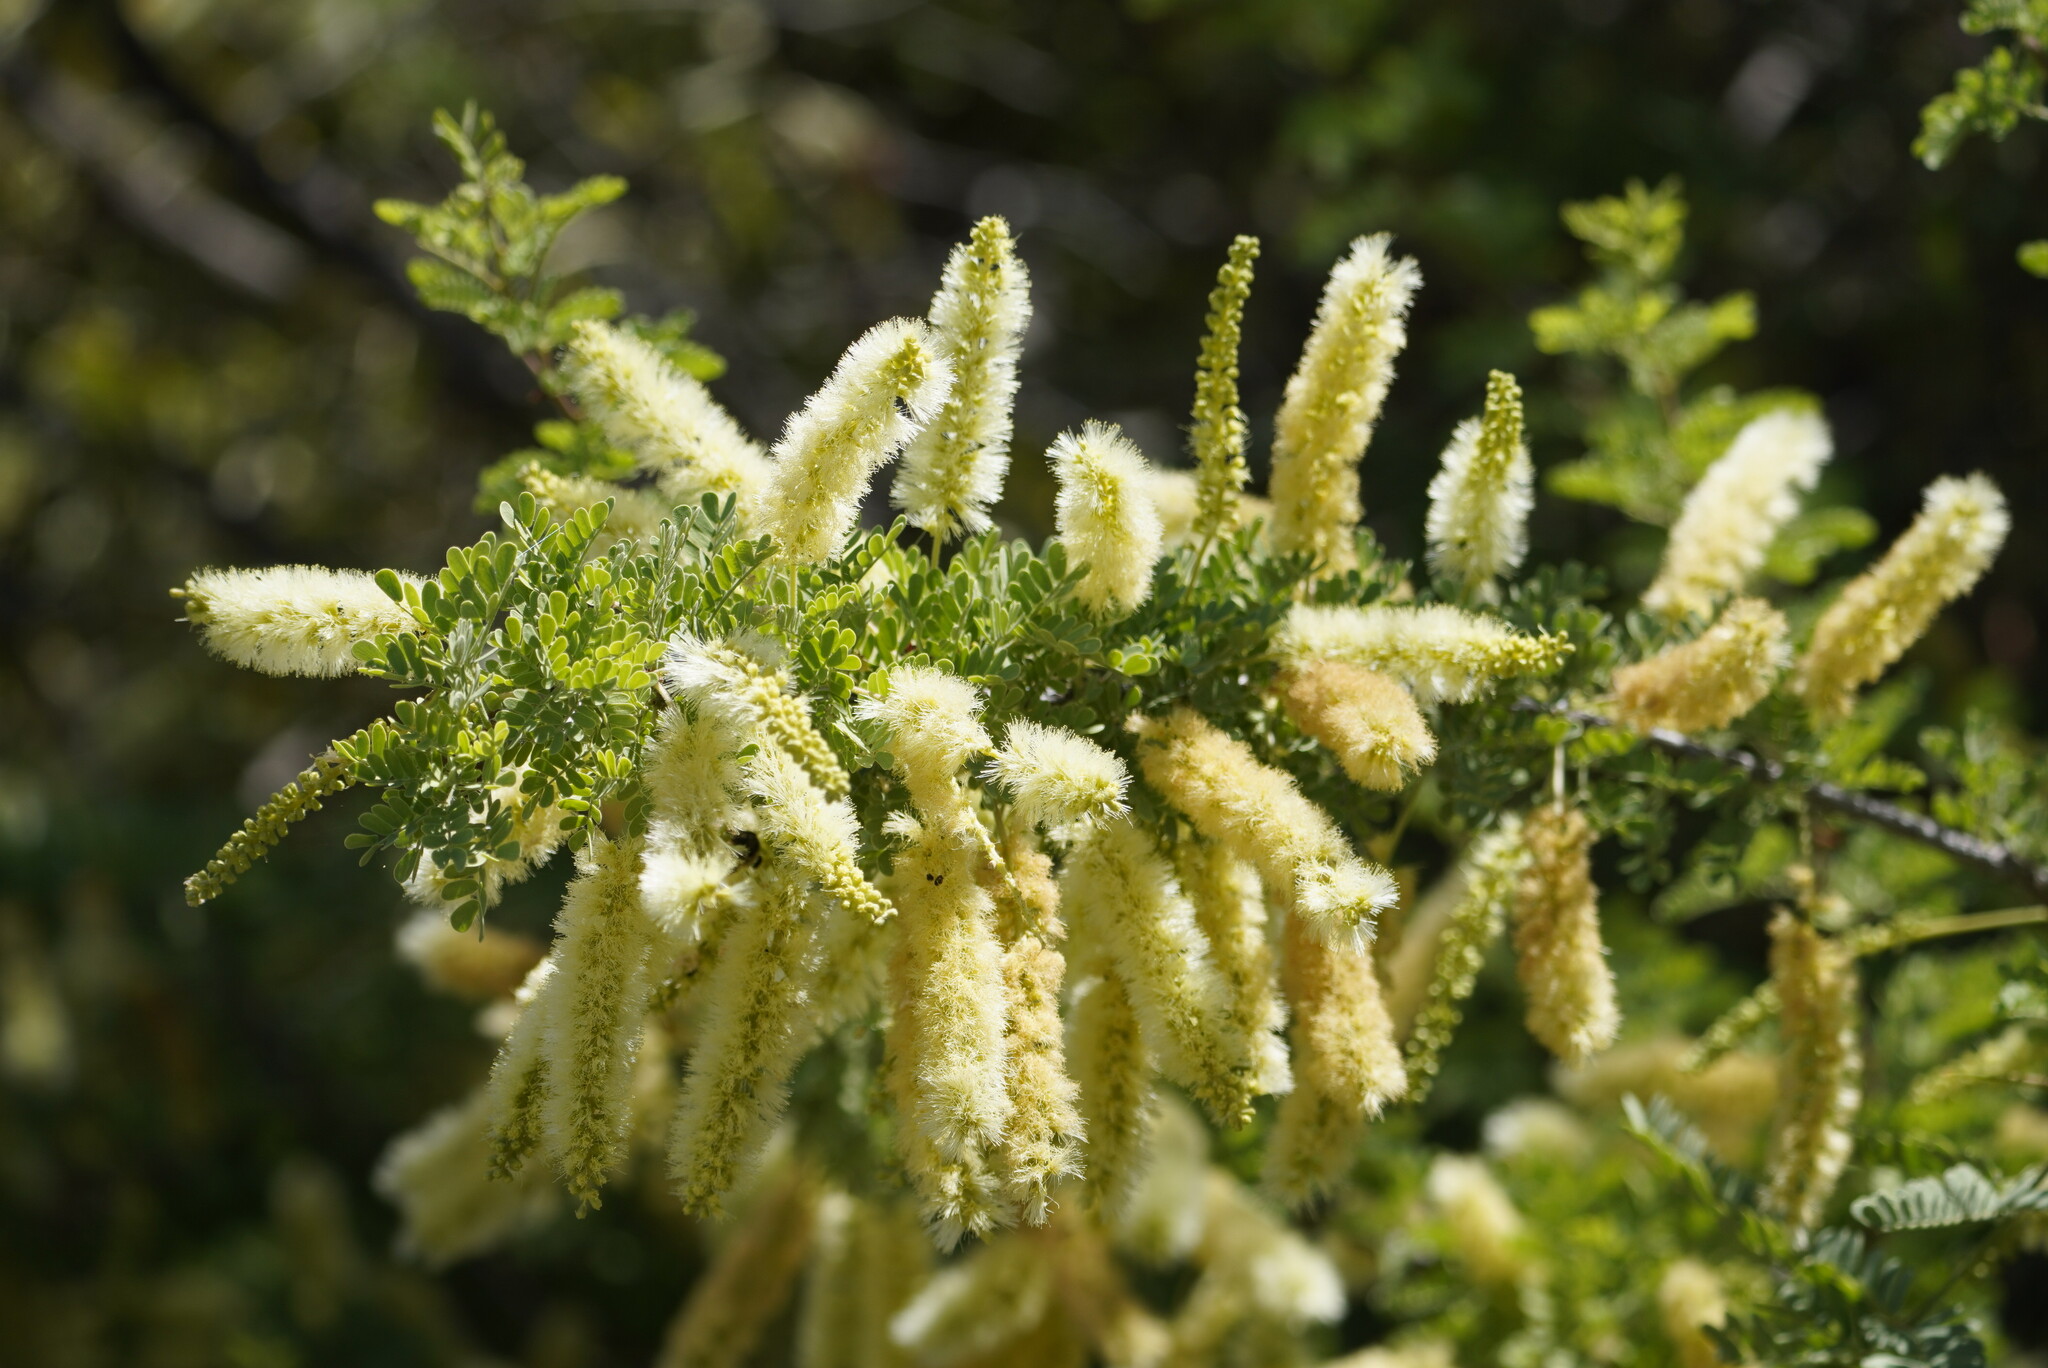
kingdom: Plantae
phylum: Tracheophyta
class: Magnoliopsida
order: Fabales
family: Fabaceae
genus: Senegalia
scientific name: Senegalia greggii
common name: Texas-mimosa
